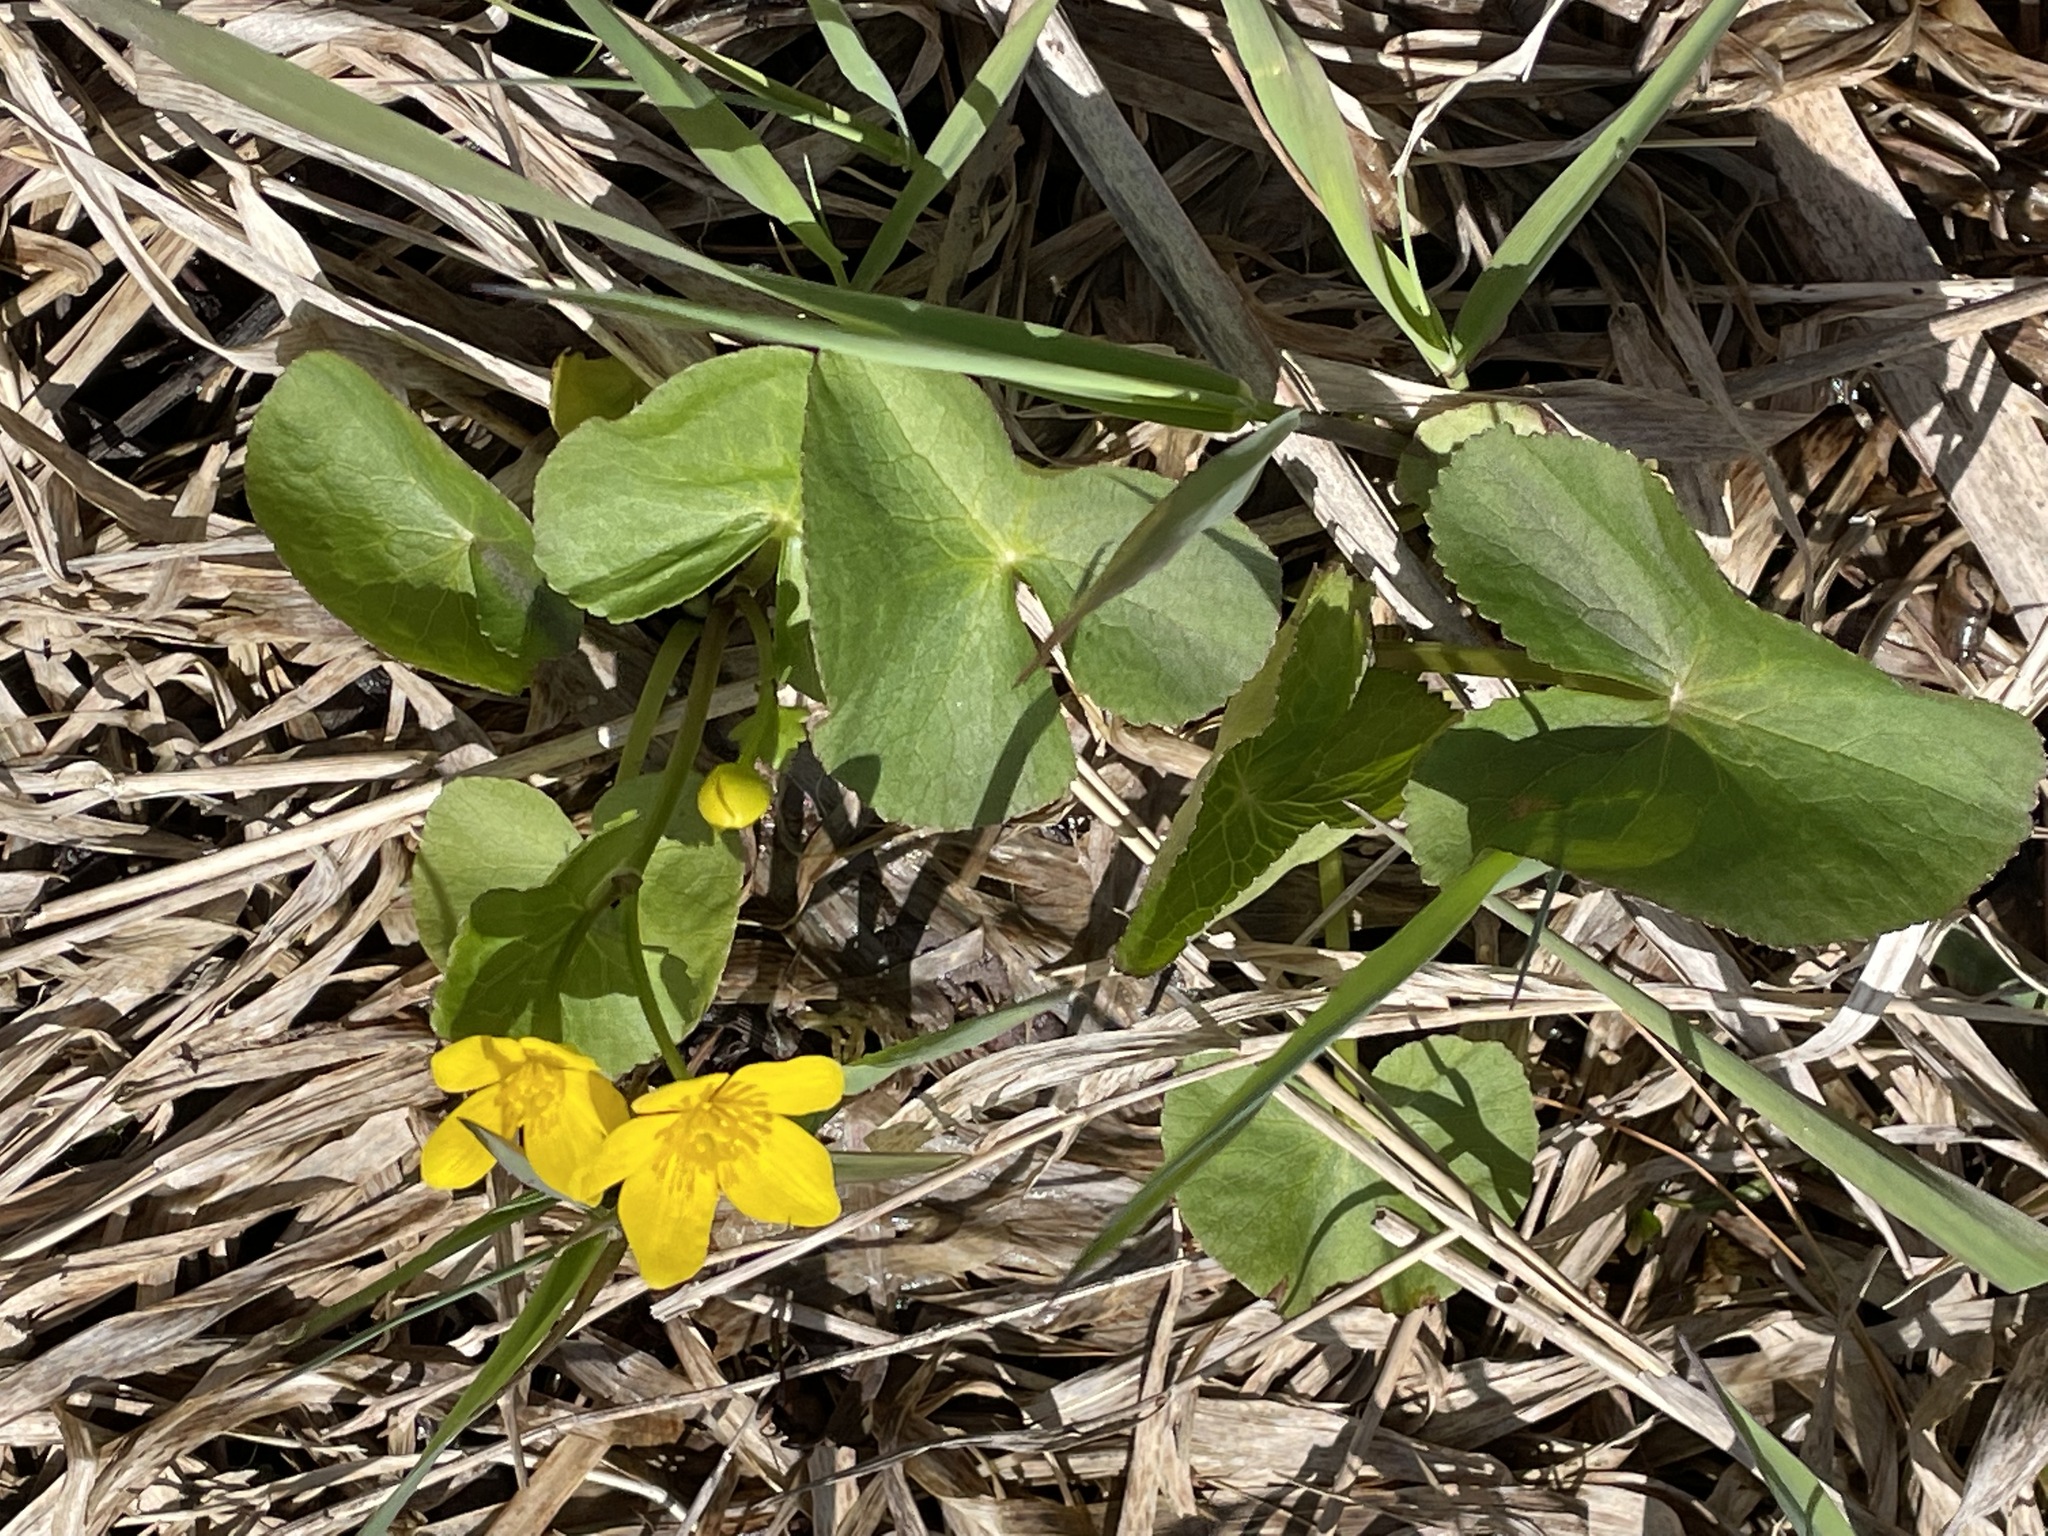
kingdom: Plantae
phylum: Tracheophyta
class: Magnoliopsida
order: Ranunculales
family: Ranunculaceae
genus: Caltha
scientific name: Caltha palustris
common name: Marsh marigold
